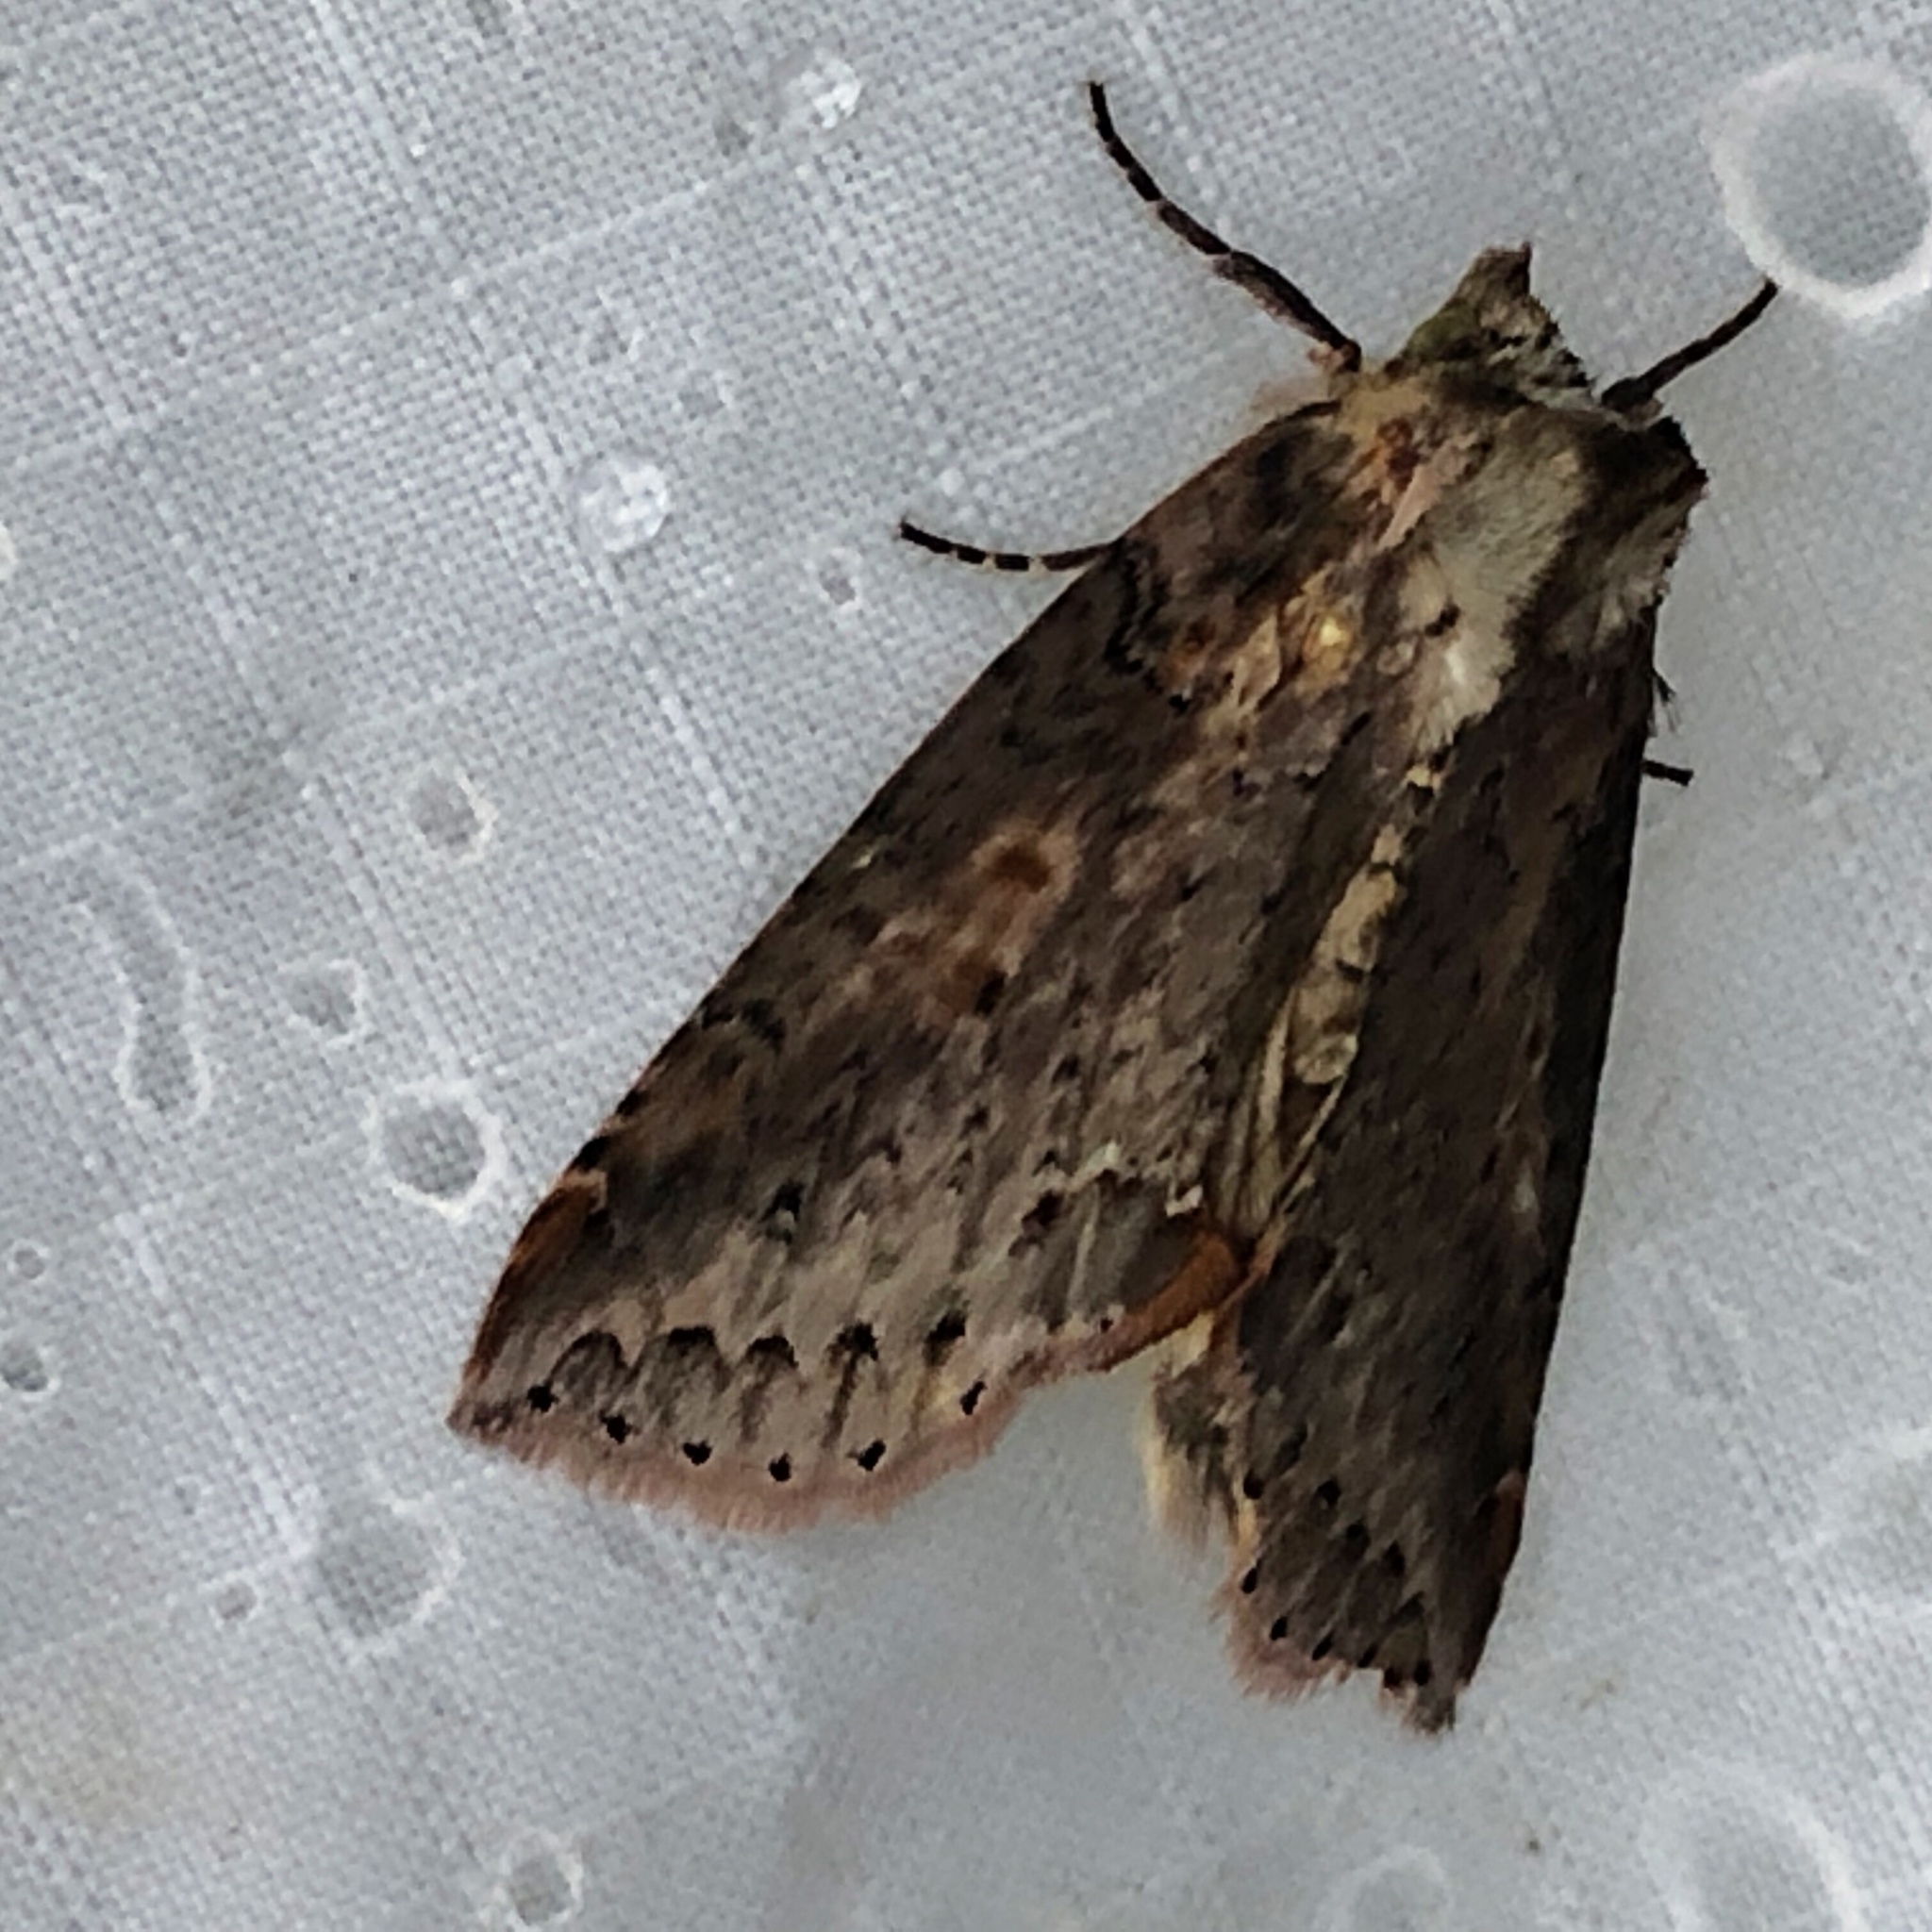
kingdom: Animalia
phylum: Arthropoda
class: Insecta
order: Lepidoptera
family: Drepanidae
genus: Pseudothyatira
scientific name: Pseudothyatira cymatophoroides
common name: Tufted thyatirid moth
